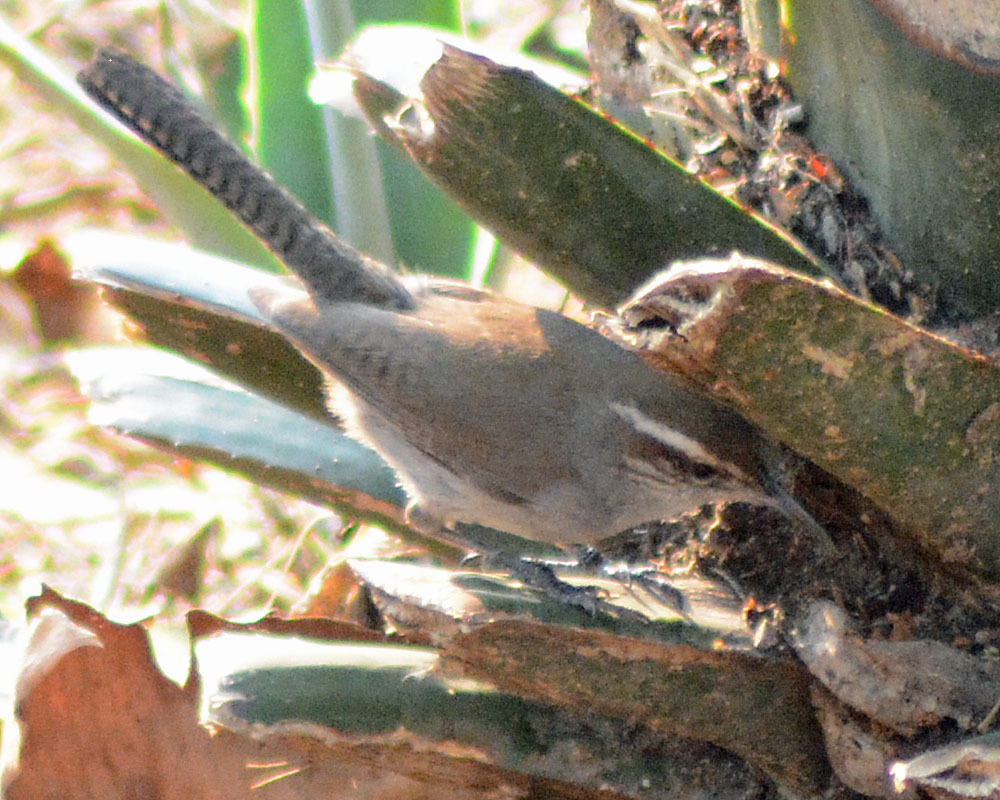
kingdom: Animalia
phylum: Chordata
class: Aves
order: Passeriformes
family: Troglodytidae
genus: Thryomanes
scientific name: Thryomanes bewickii
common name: Bewick's wren
